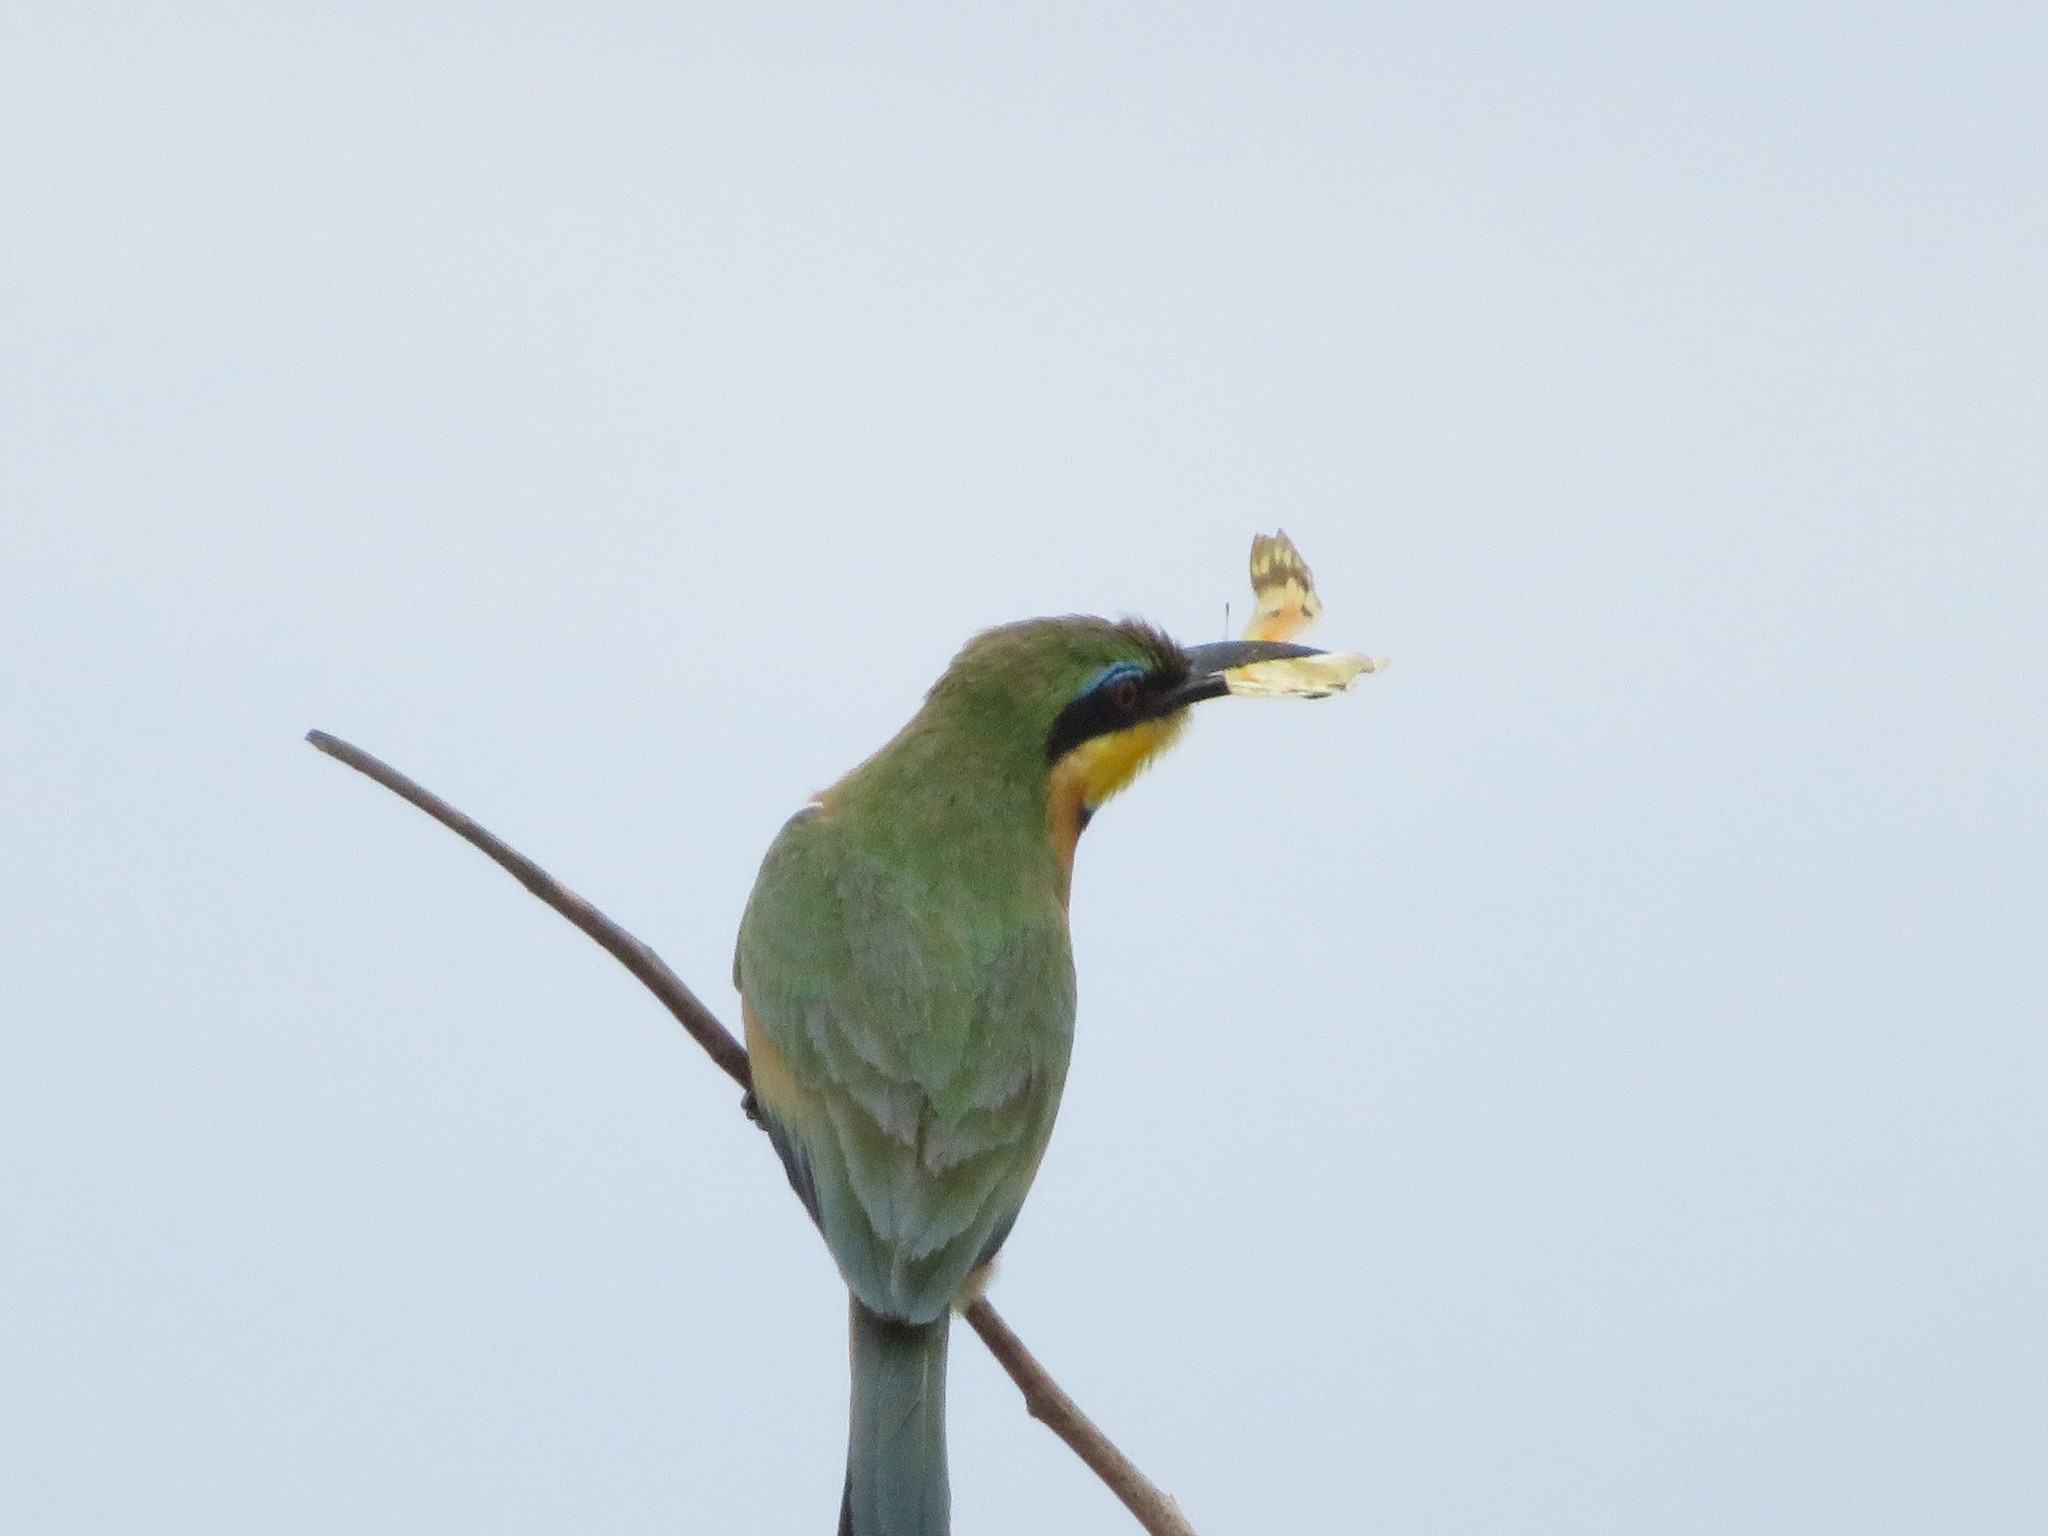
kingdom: Animalia
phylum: Chordata
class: Aves
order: Coraciiformes
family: Meropidae
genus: Merops
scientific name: Merops pusillus
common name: Little bee-eater
